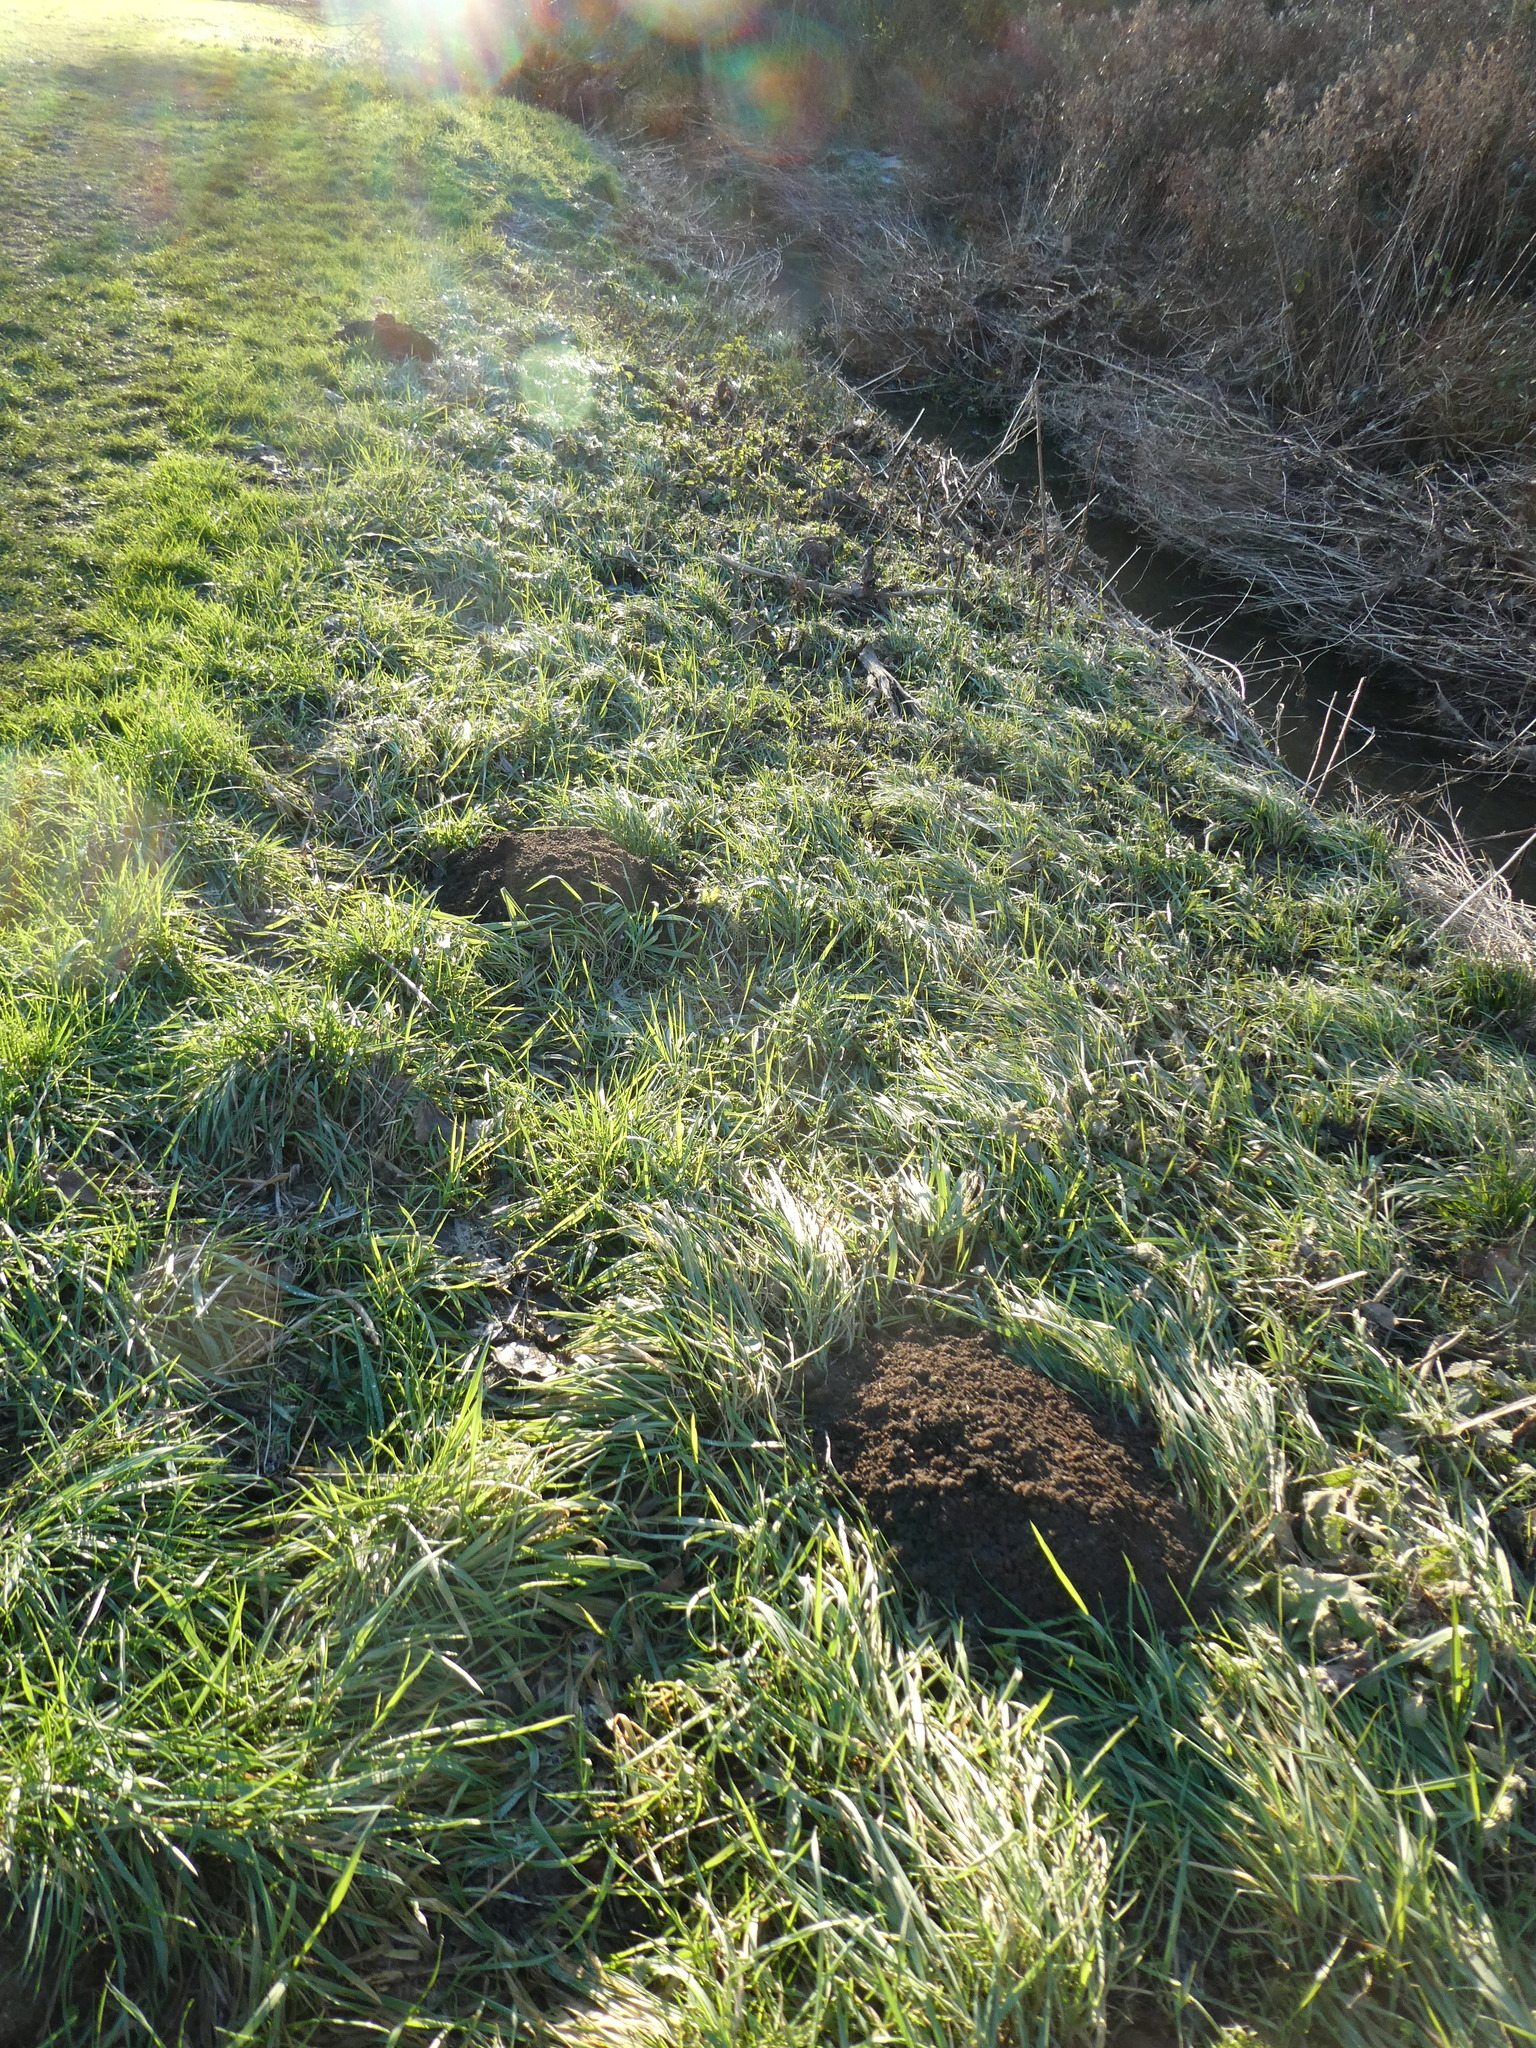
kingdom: Animalia
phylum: Chordata
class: Mammalia
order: Soricomorpha
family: Talpidae
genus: Talpa
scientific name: Talpa europaea
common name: European mole
